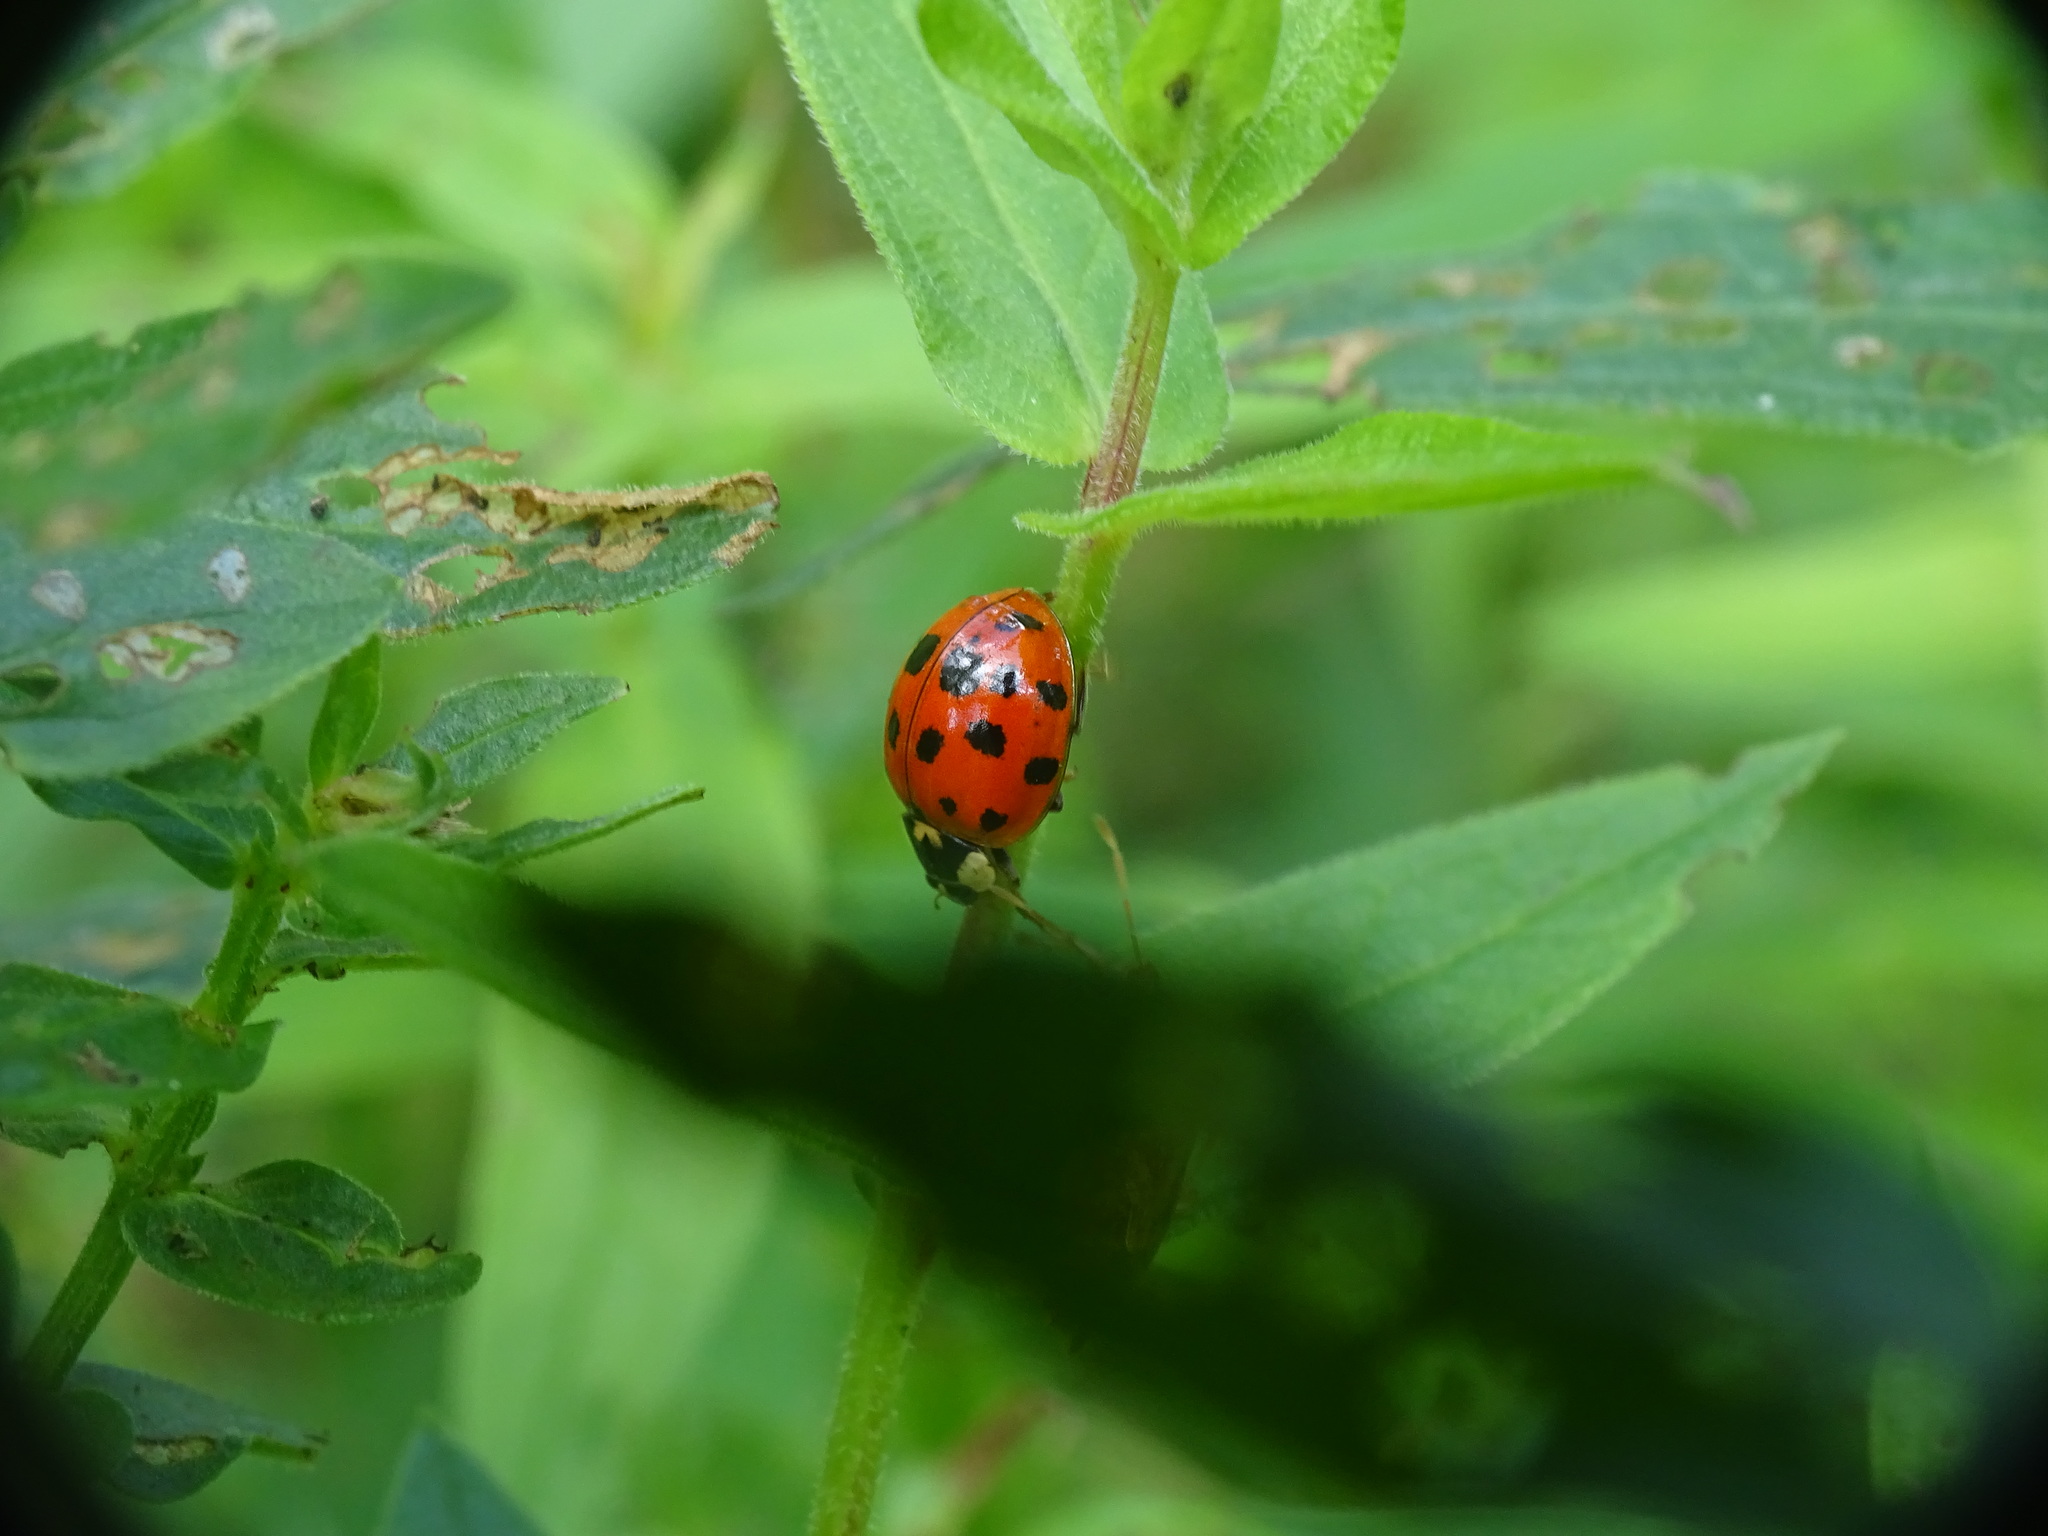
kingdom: Animalia
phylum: Arthropoda
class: Insecta
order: Coleoptera
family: Coccinellidae
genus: Harmonia
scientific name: Harmonia axyridis
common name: Harlequin ladybird
